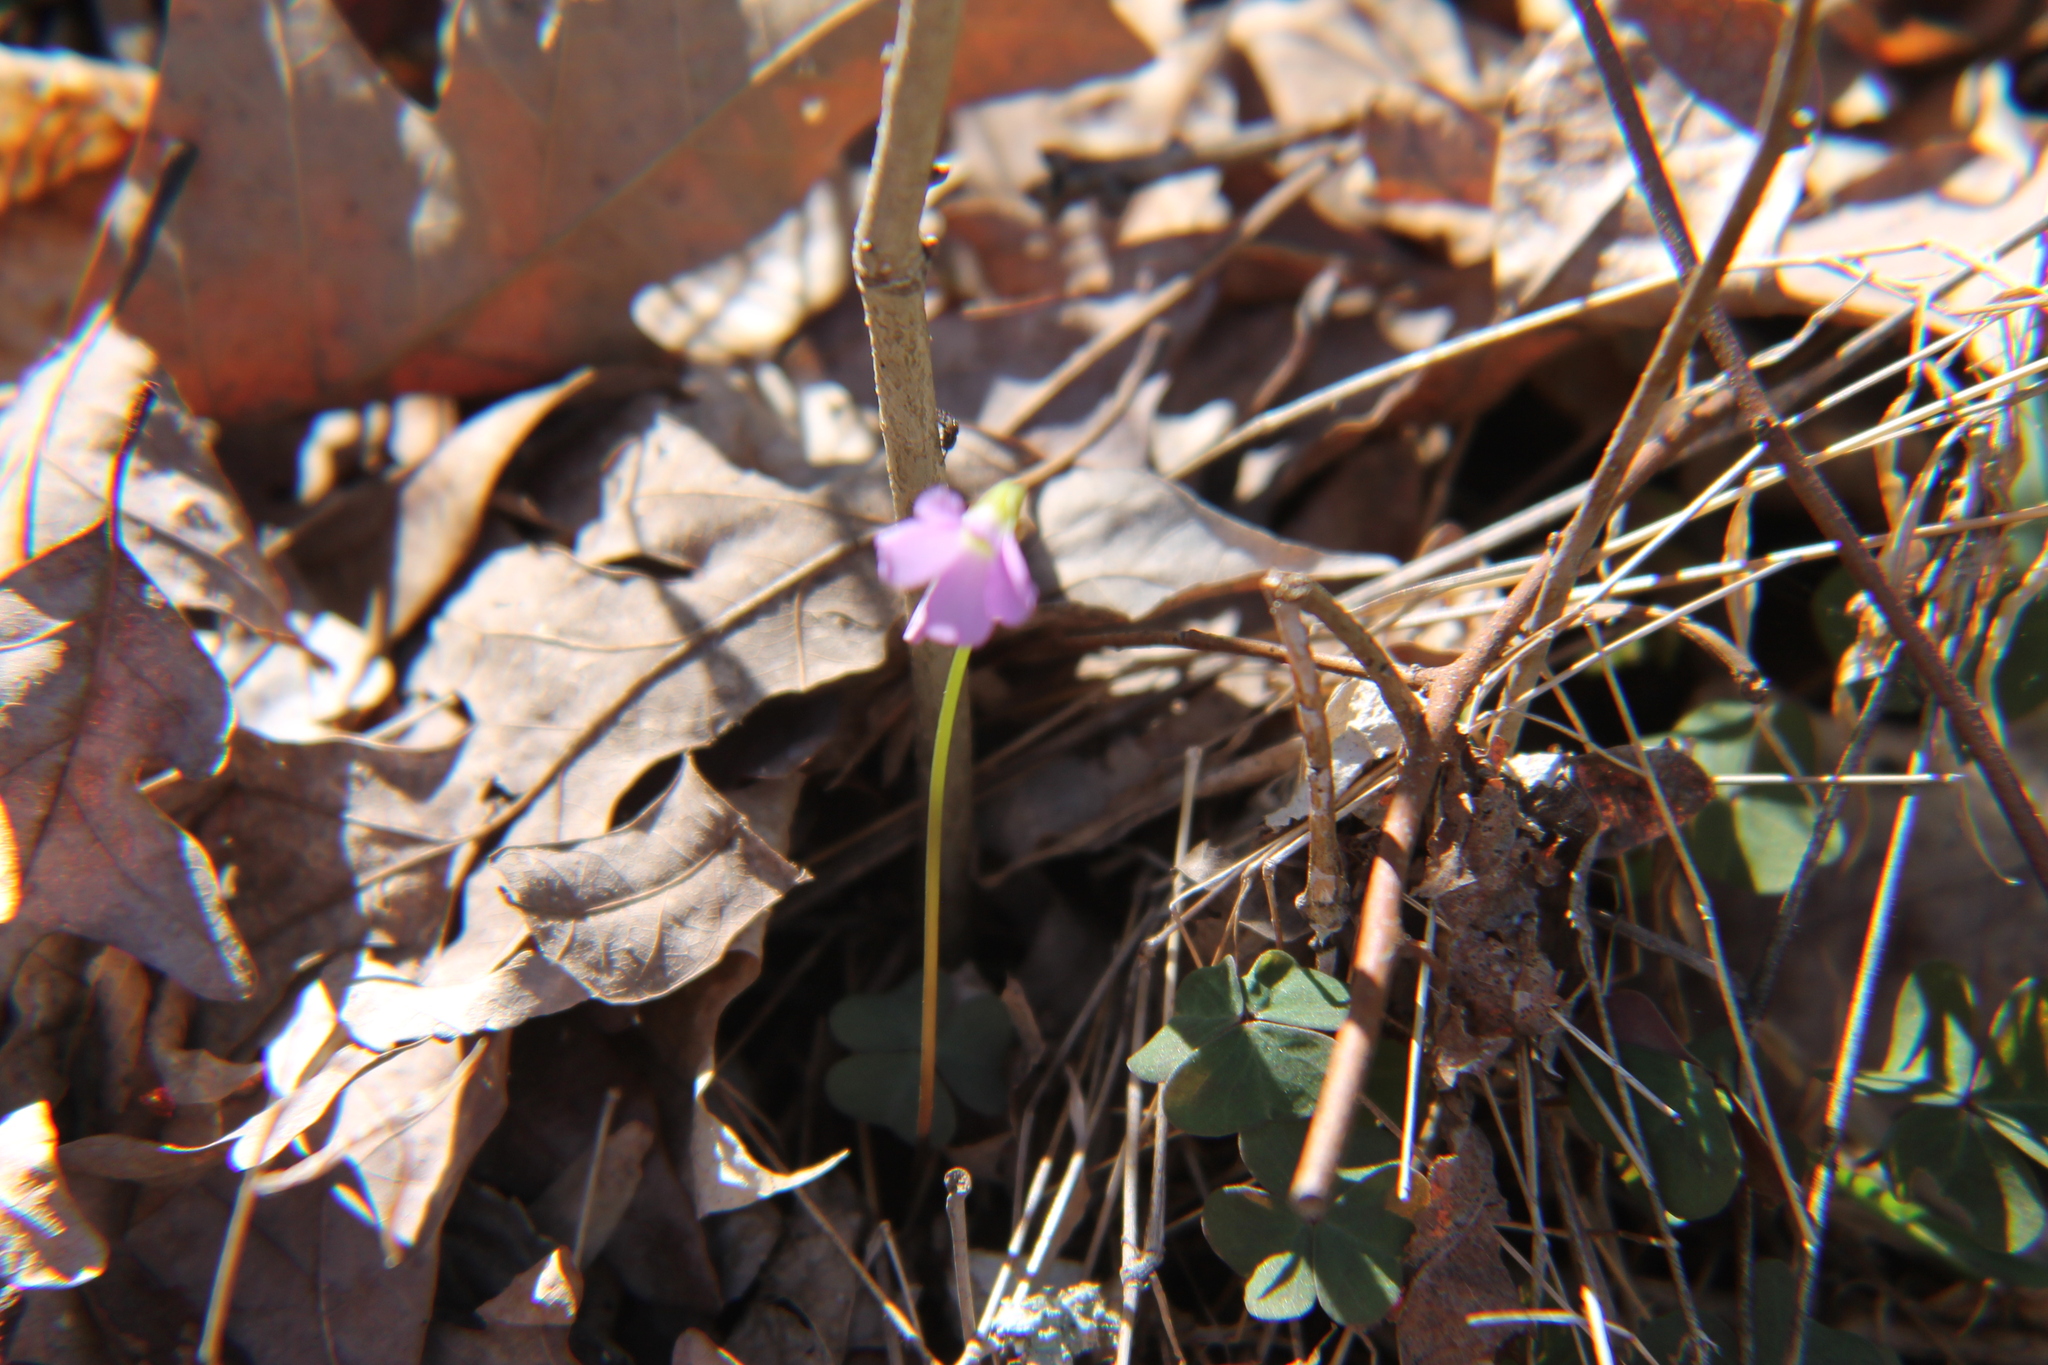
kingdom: Plantae
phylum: Tracheophyta
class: Magnoliopsida
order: Oxalidales
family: Oxalidaceae
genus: Oxalis
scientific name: Oxalis violacea
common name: Violet wood-sorrel
